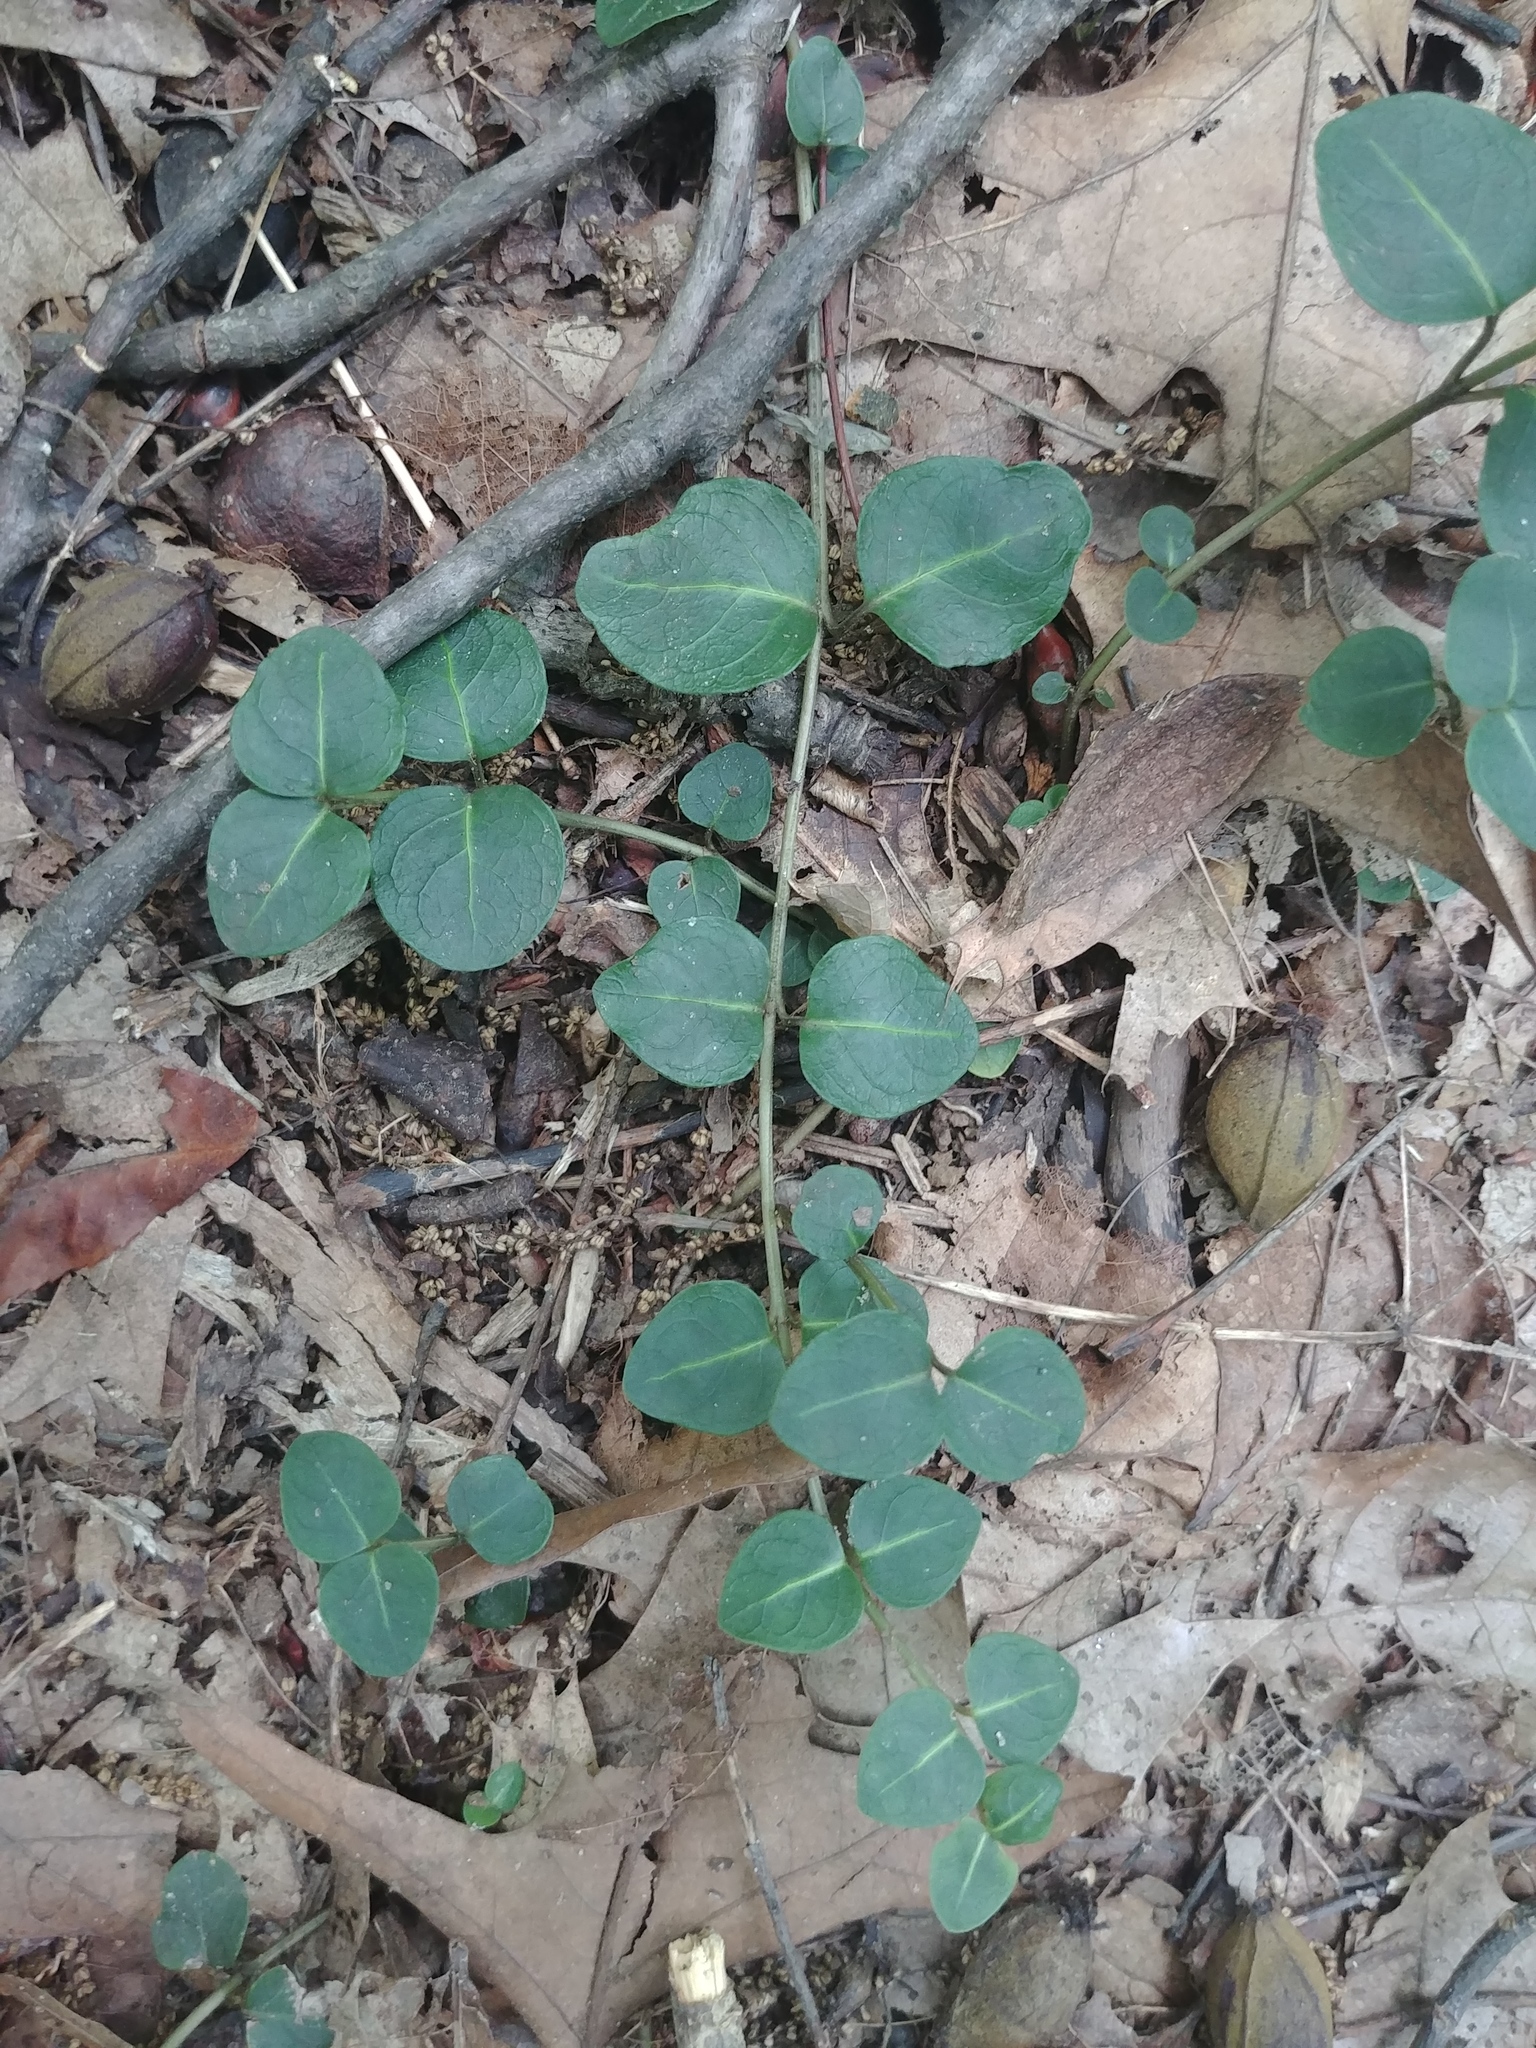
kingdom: Plantae
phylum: Tracheophyta
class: Magnoliopsida
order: Gentianales
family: Rubiaceae
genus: Mitchella
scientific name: Mitchella repens
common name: Partridge-berry
